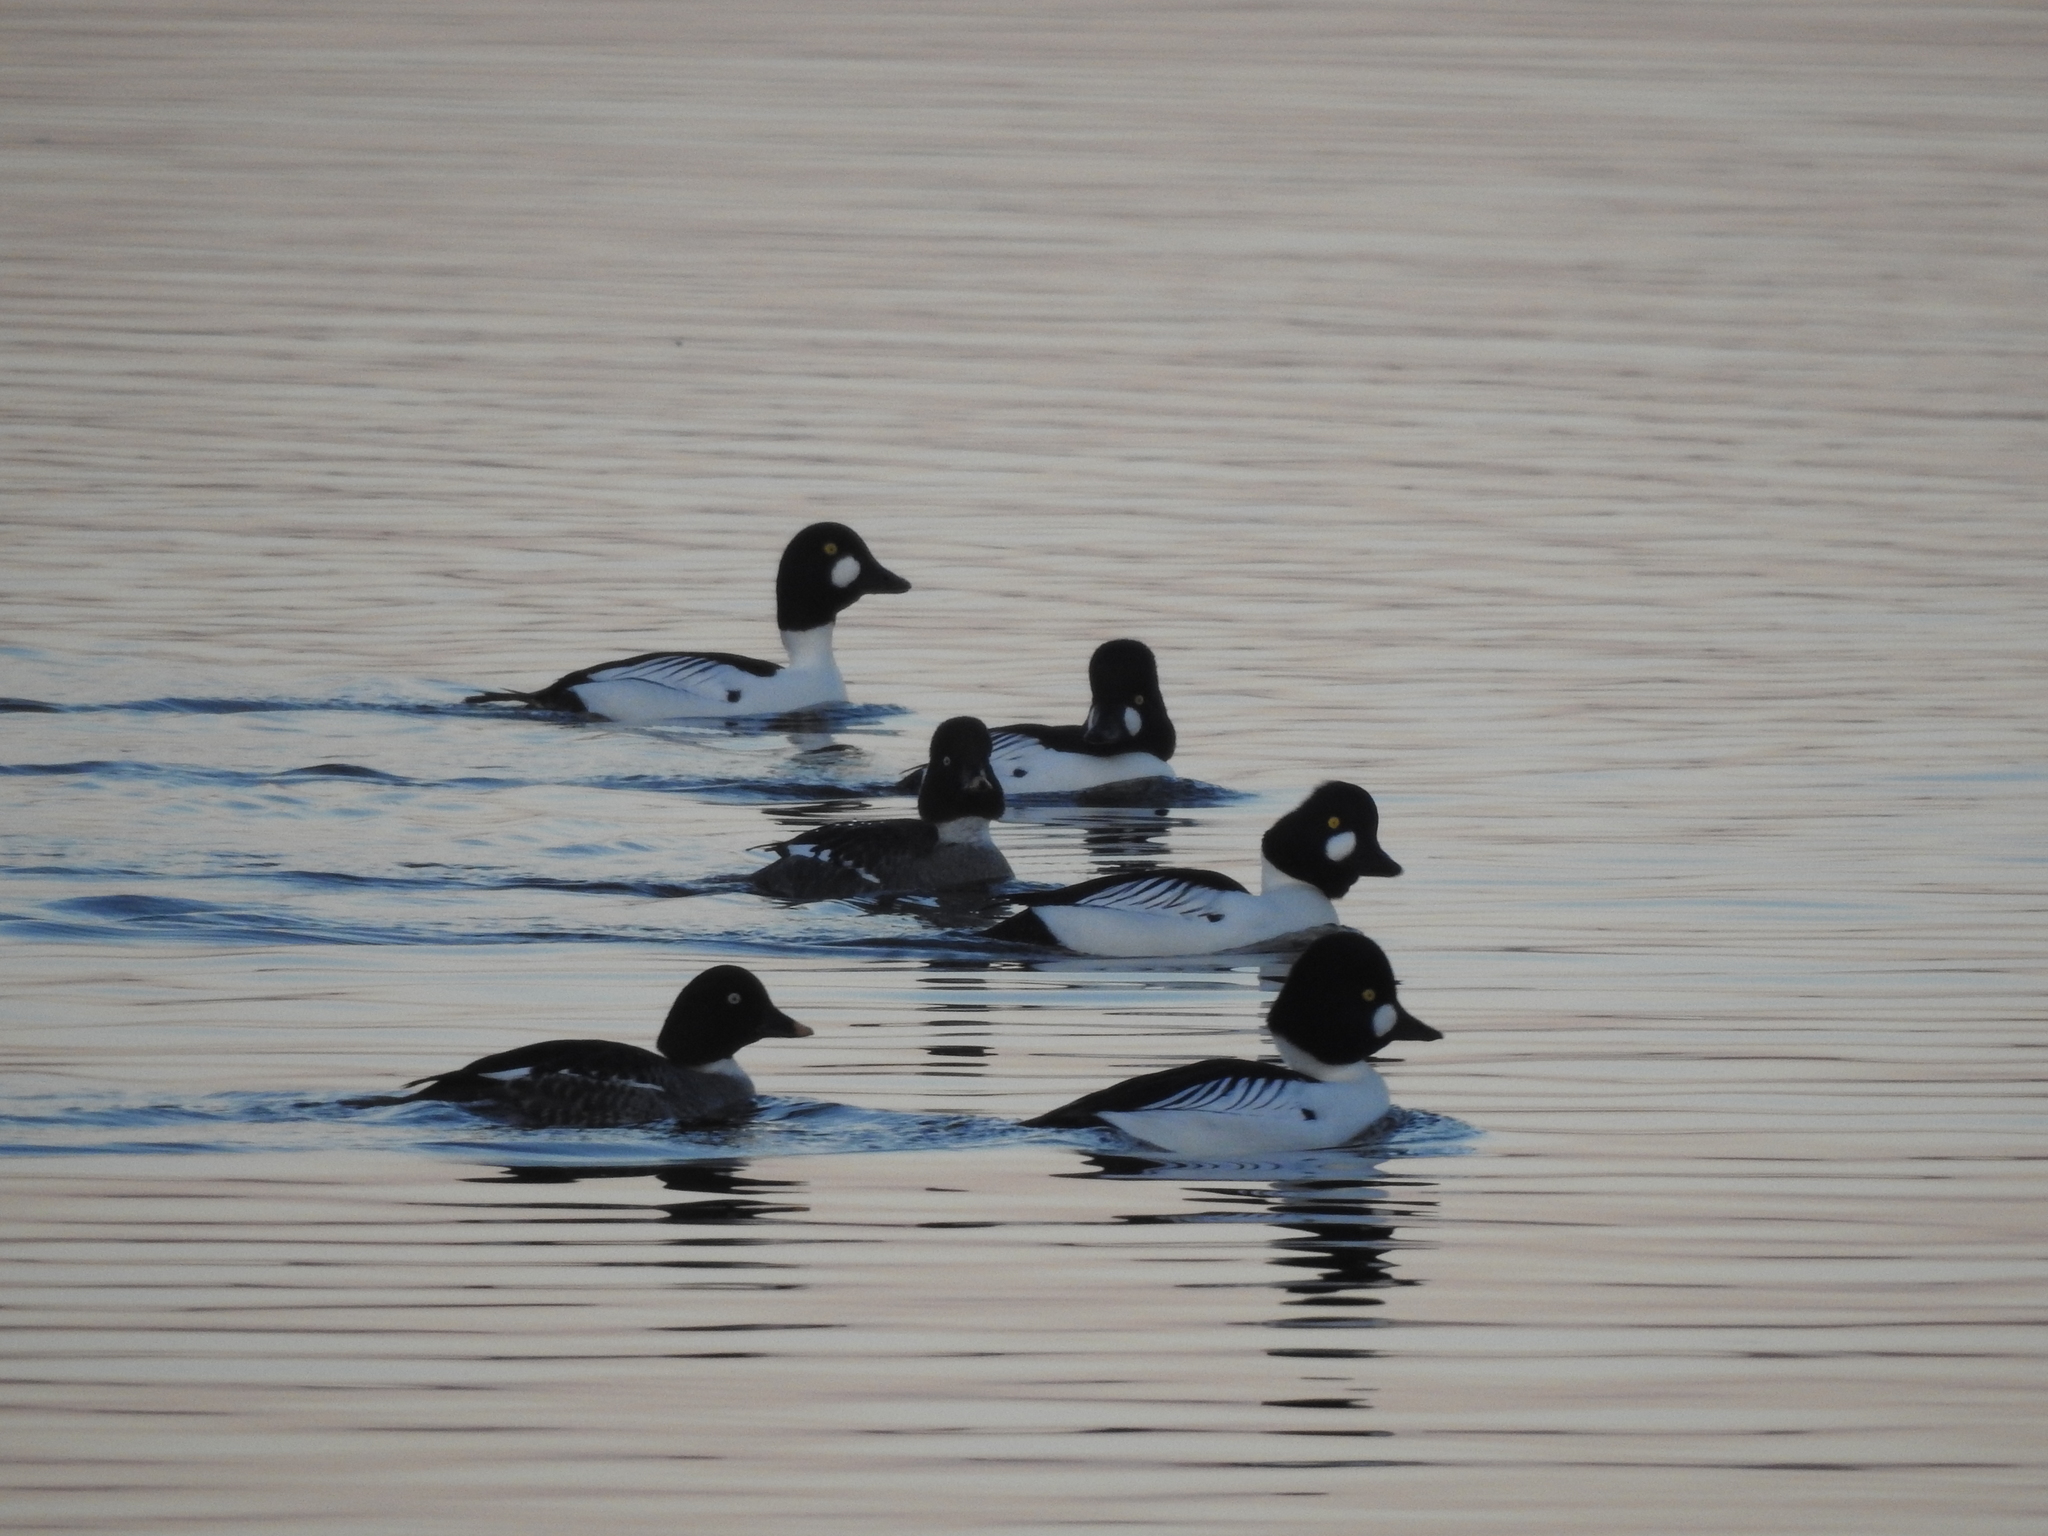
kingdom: Animalia
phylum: Chordata
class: Aves
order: Anseriformes
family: Anatidae
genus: Bucephala
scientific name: Bucephala clangula
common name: Common goldeneye
